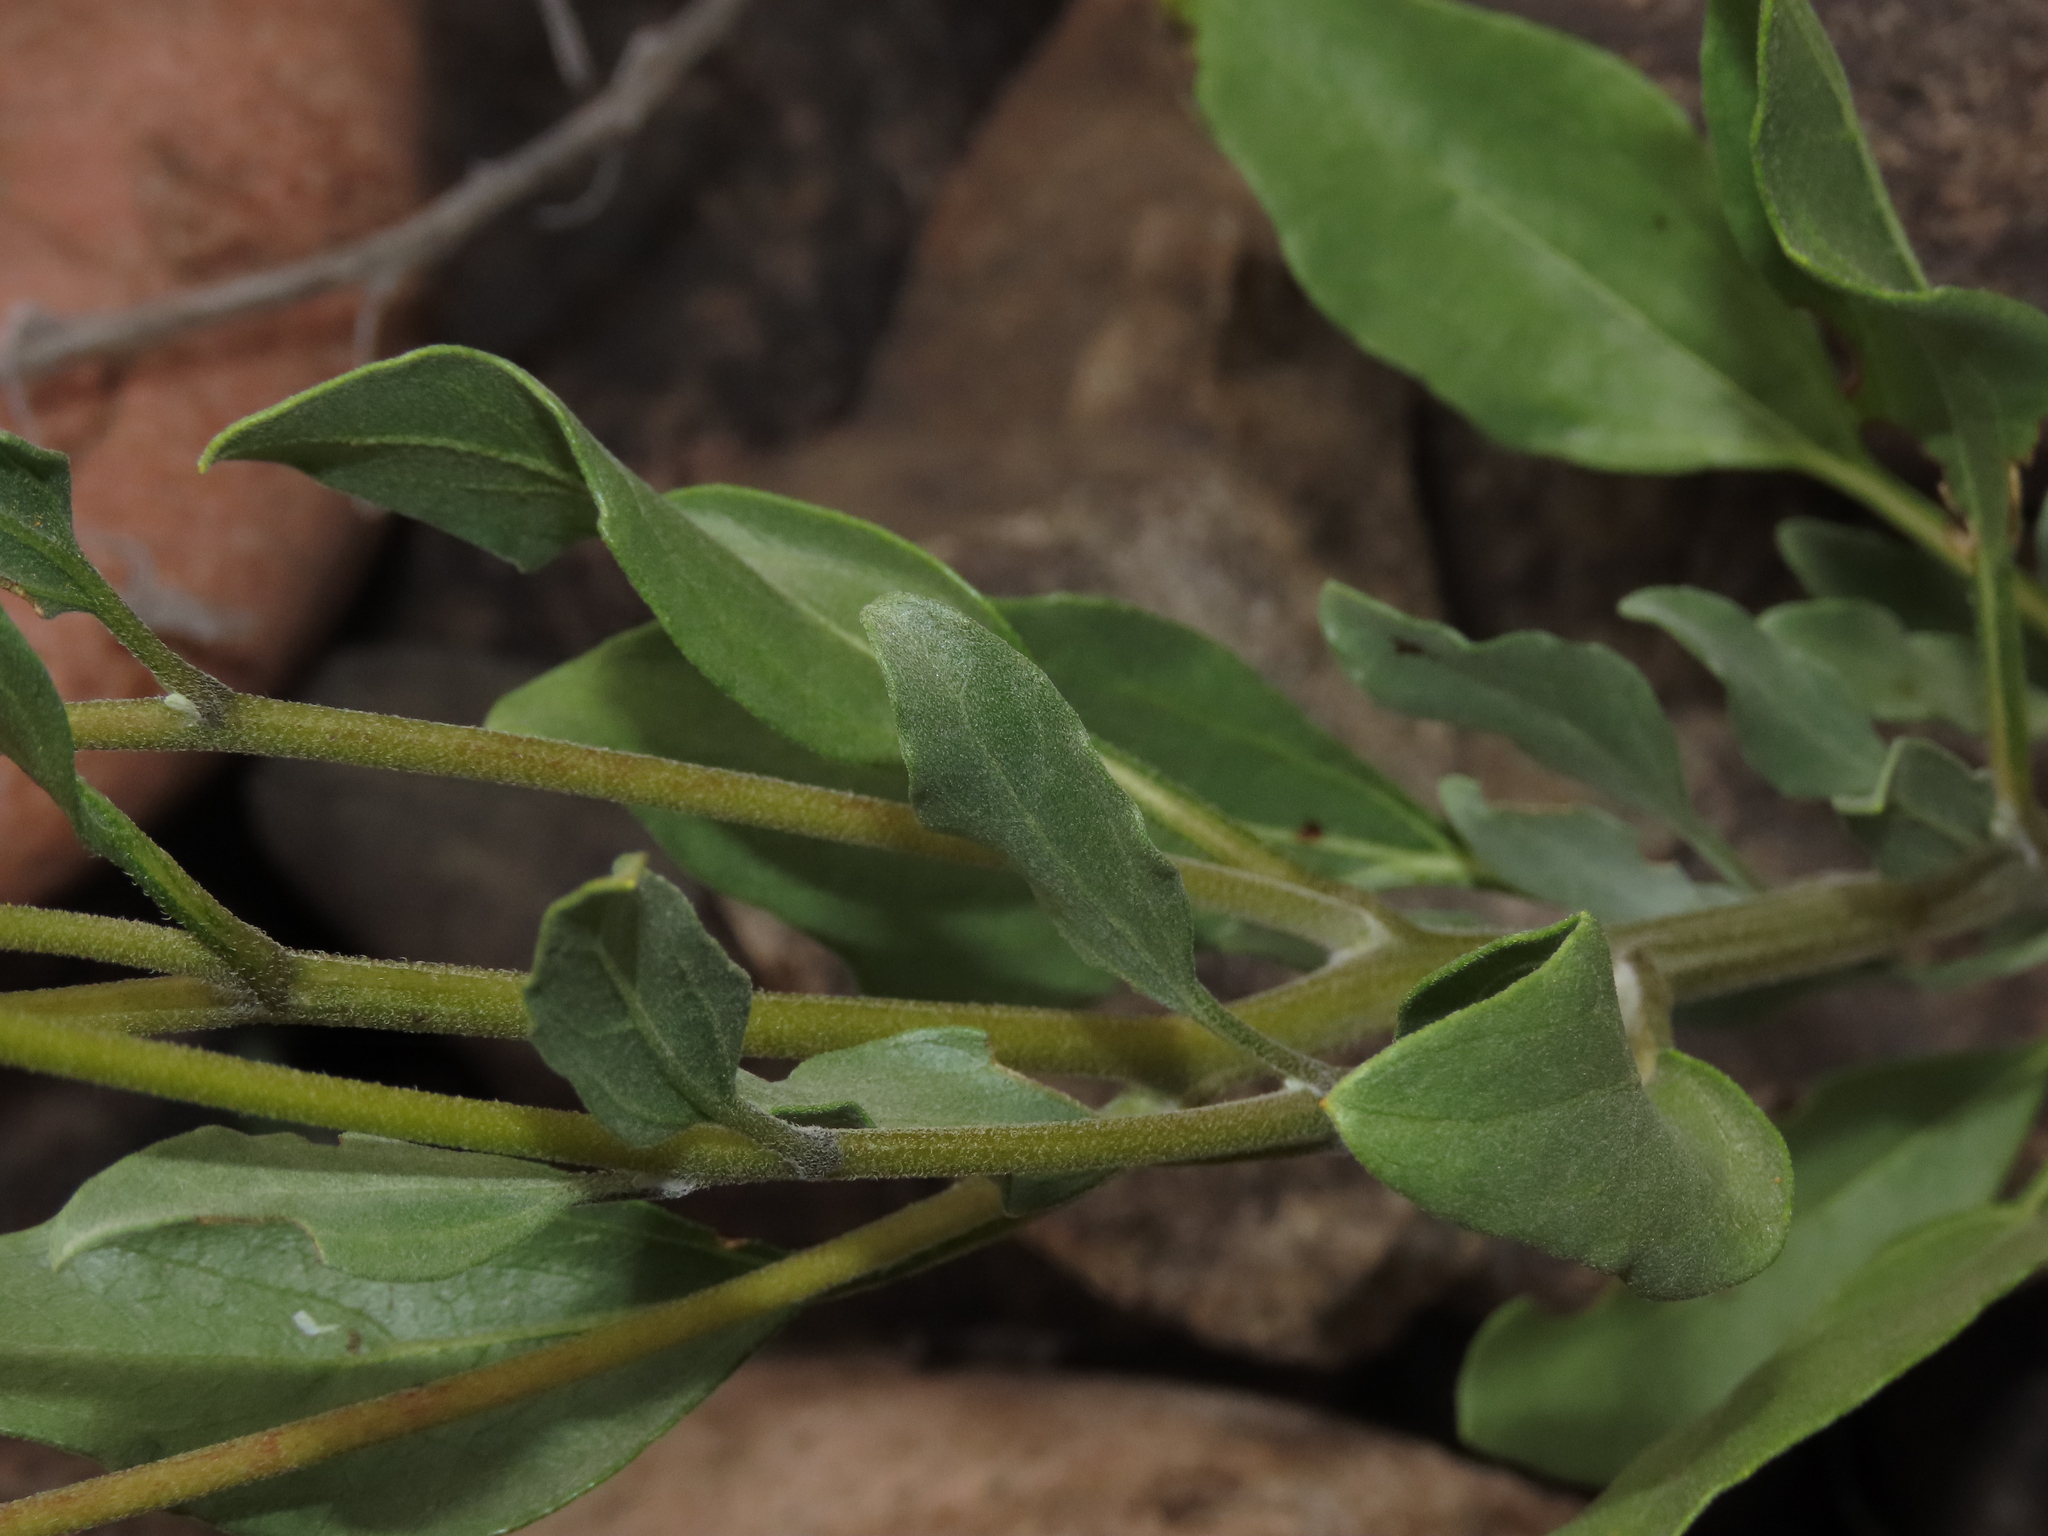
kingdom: Plantae
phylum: Tracheophyta
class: Magnoliopsida
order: Asterales
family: Asteraceae
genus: Encelia
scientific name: Encelia canescens
